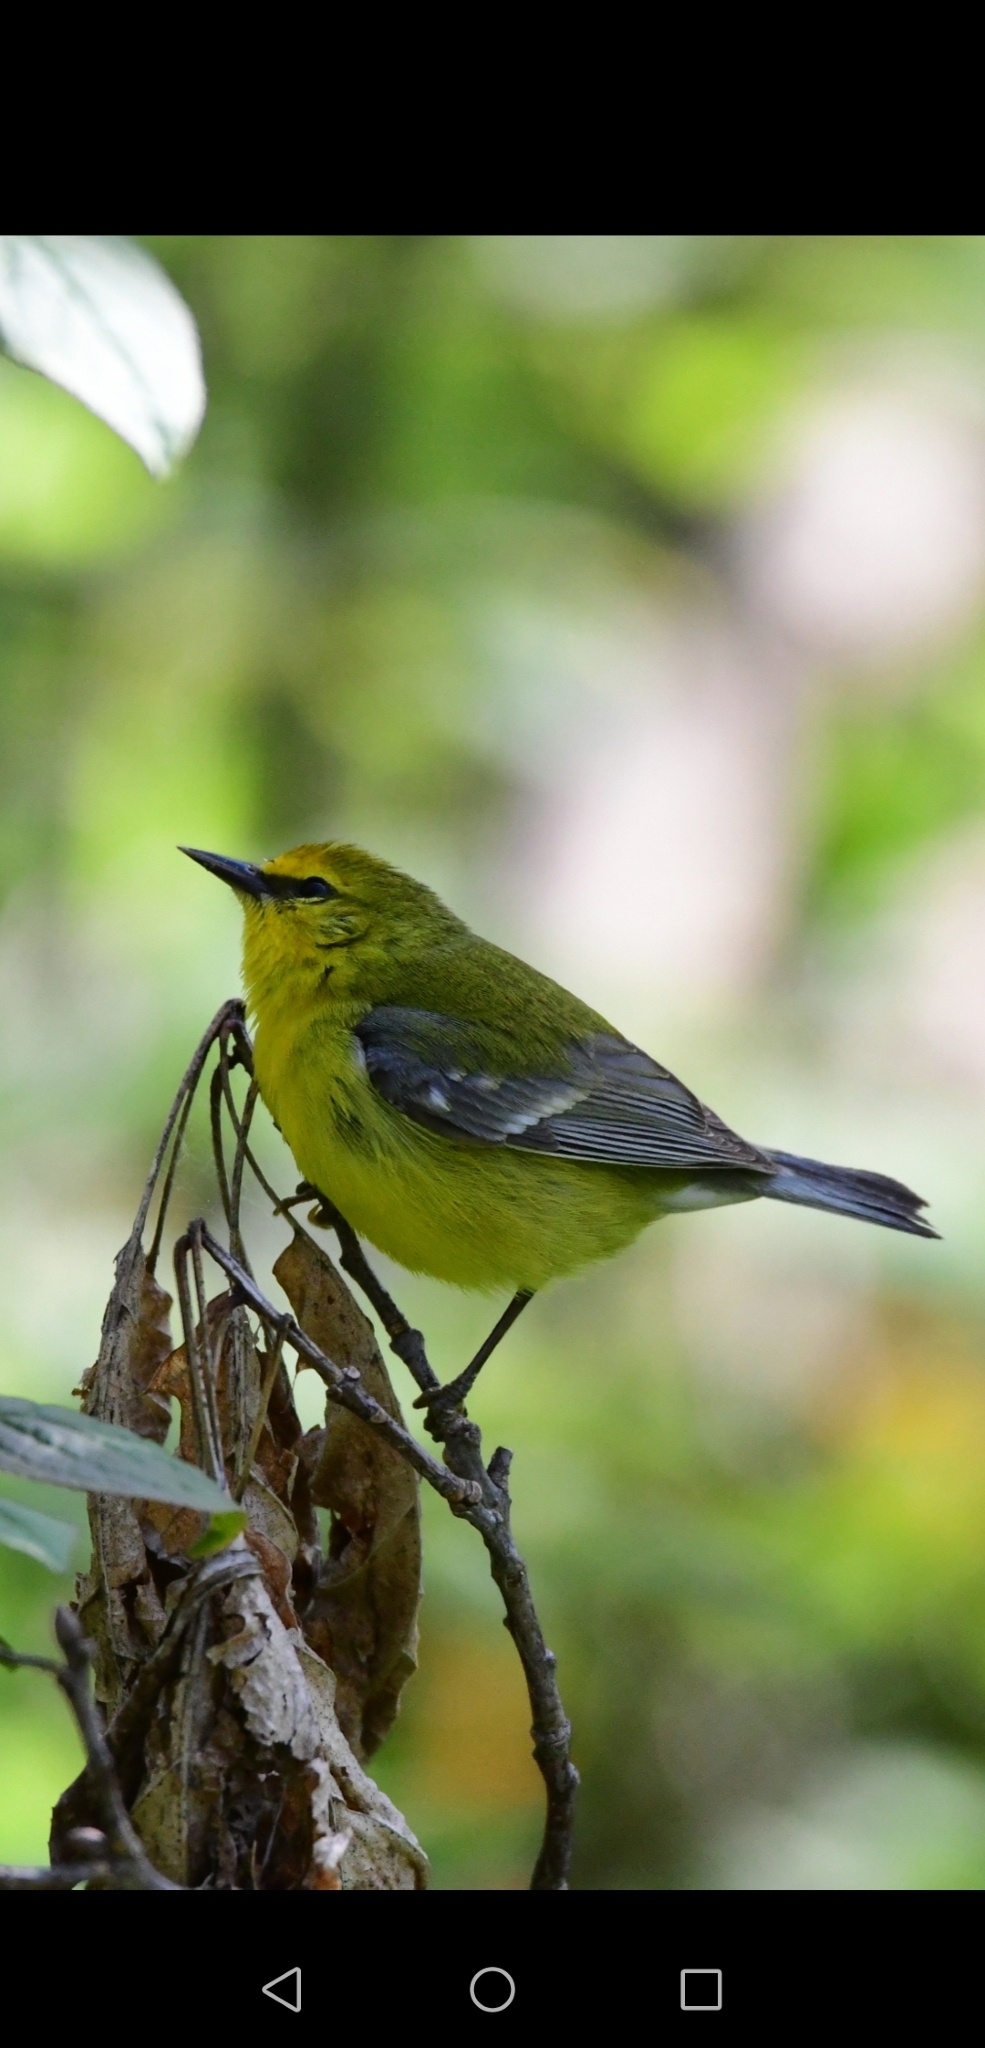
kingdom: Animalia
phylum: Chordata
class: Aves
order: Passeriformes
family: Parulidae
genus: Vermivora
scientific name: Vermivora cyanoptera
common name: Blue-winged warbler
